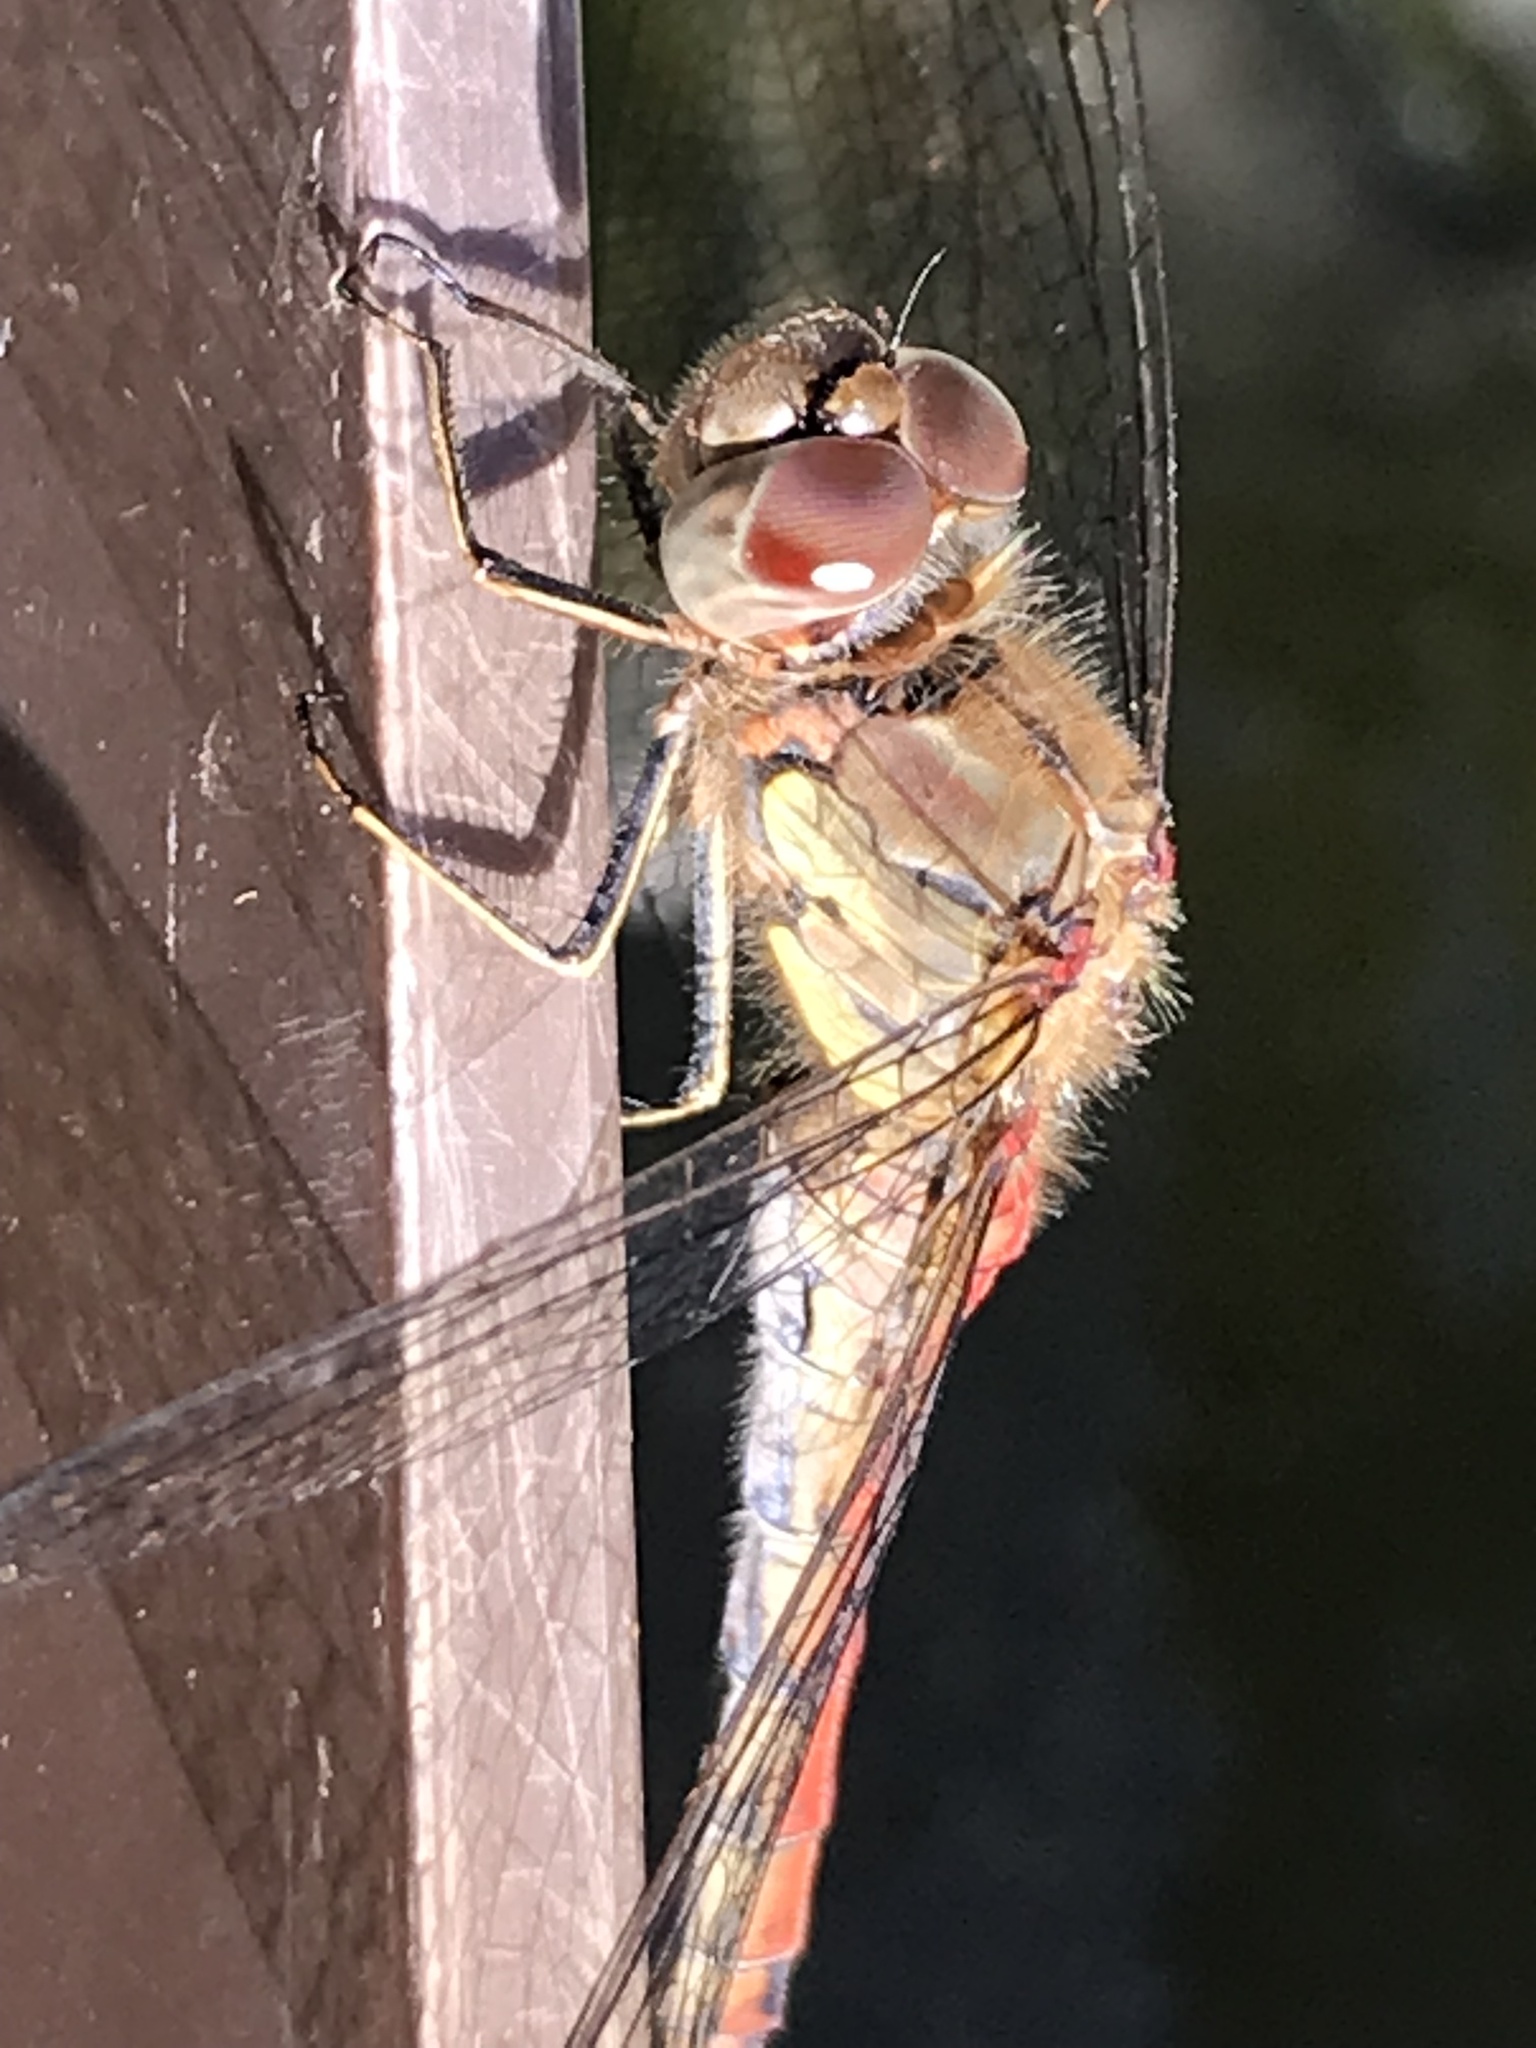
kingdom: Animalia
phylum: Arthropoda
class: Insecta
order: Odonata
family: Libellulidae
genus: Sympetrum
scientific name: Sympetrum striolatum
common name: Common darter
